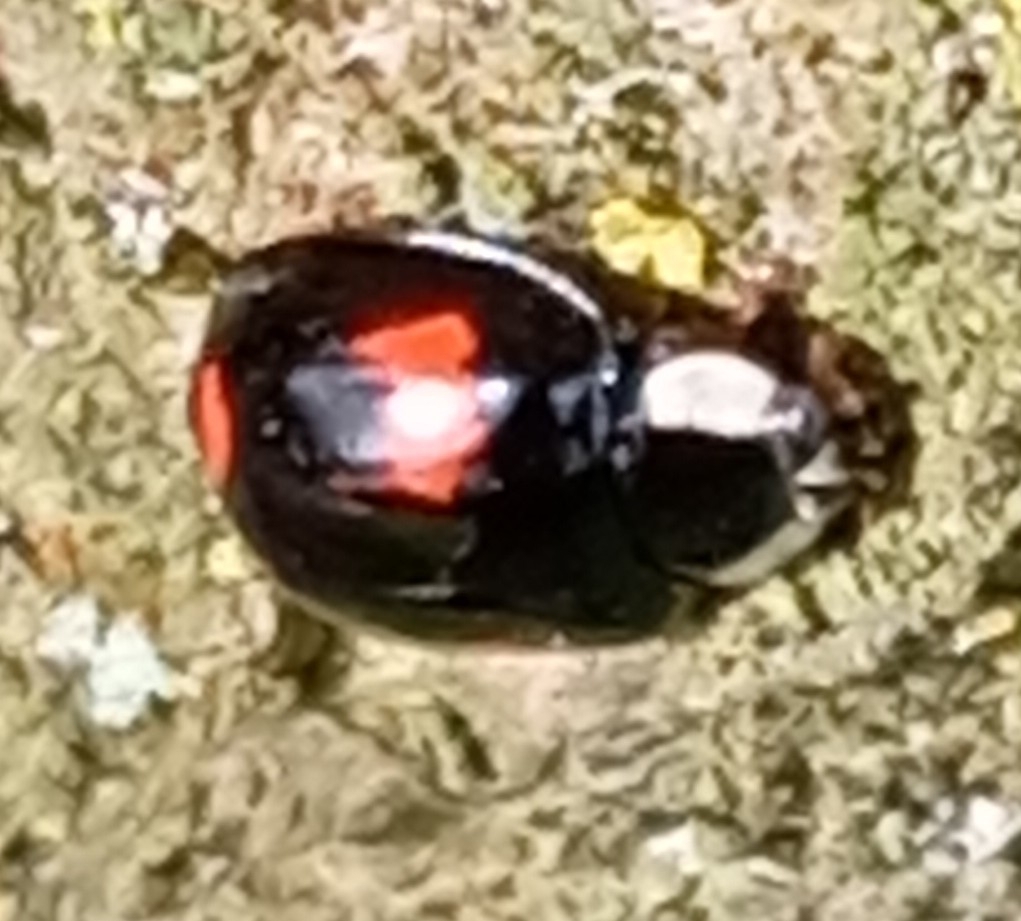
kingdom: Animalia
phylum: Arthropoda
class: Insecta
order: Coleoptera
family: Coccinellidae
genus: Harmonia
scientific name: Harmonia axyridis
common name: Harlequin ladybird
